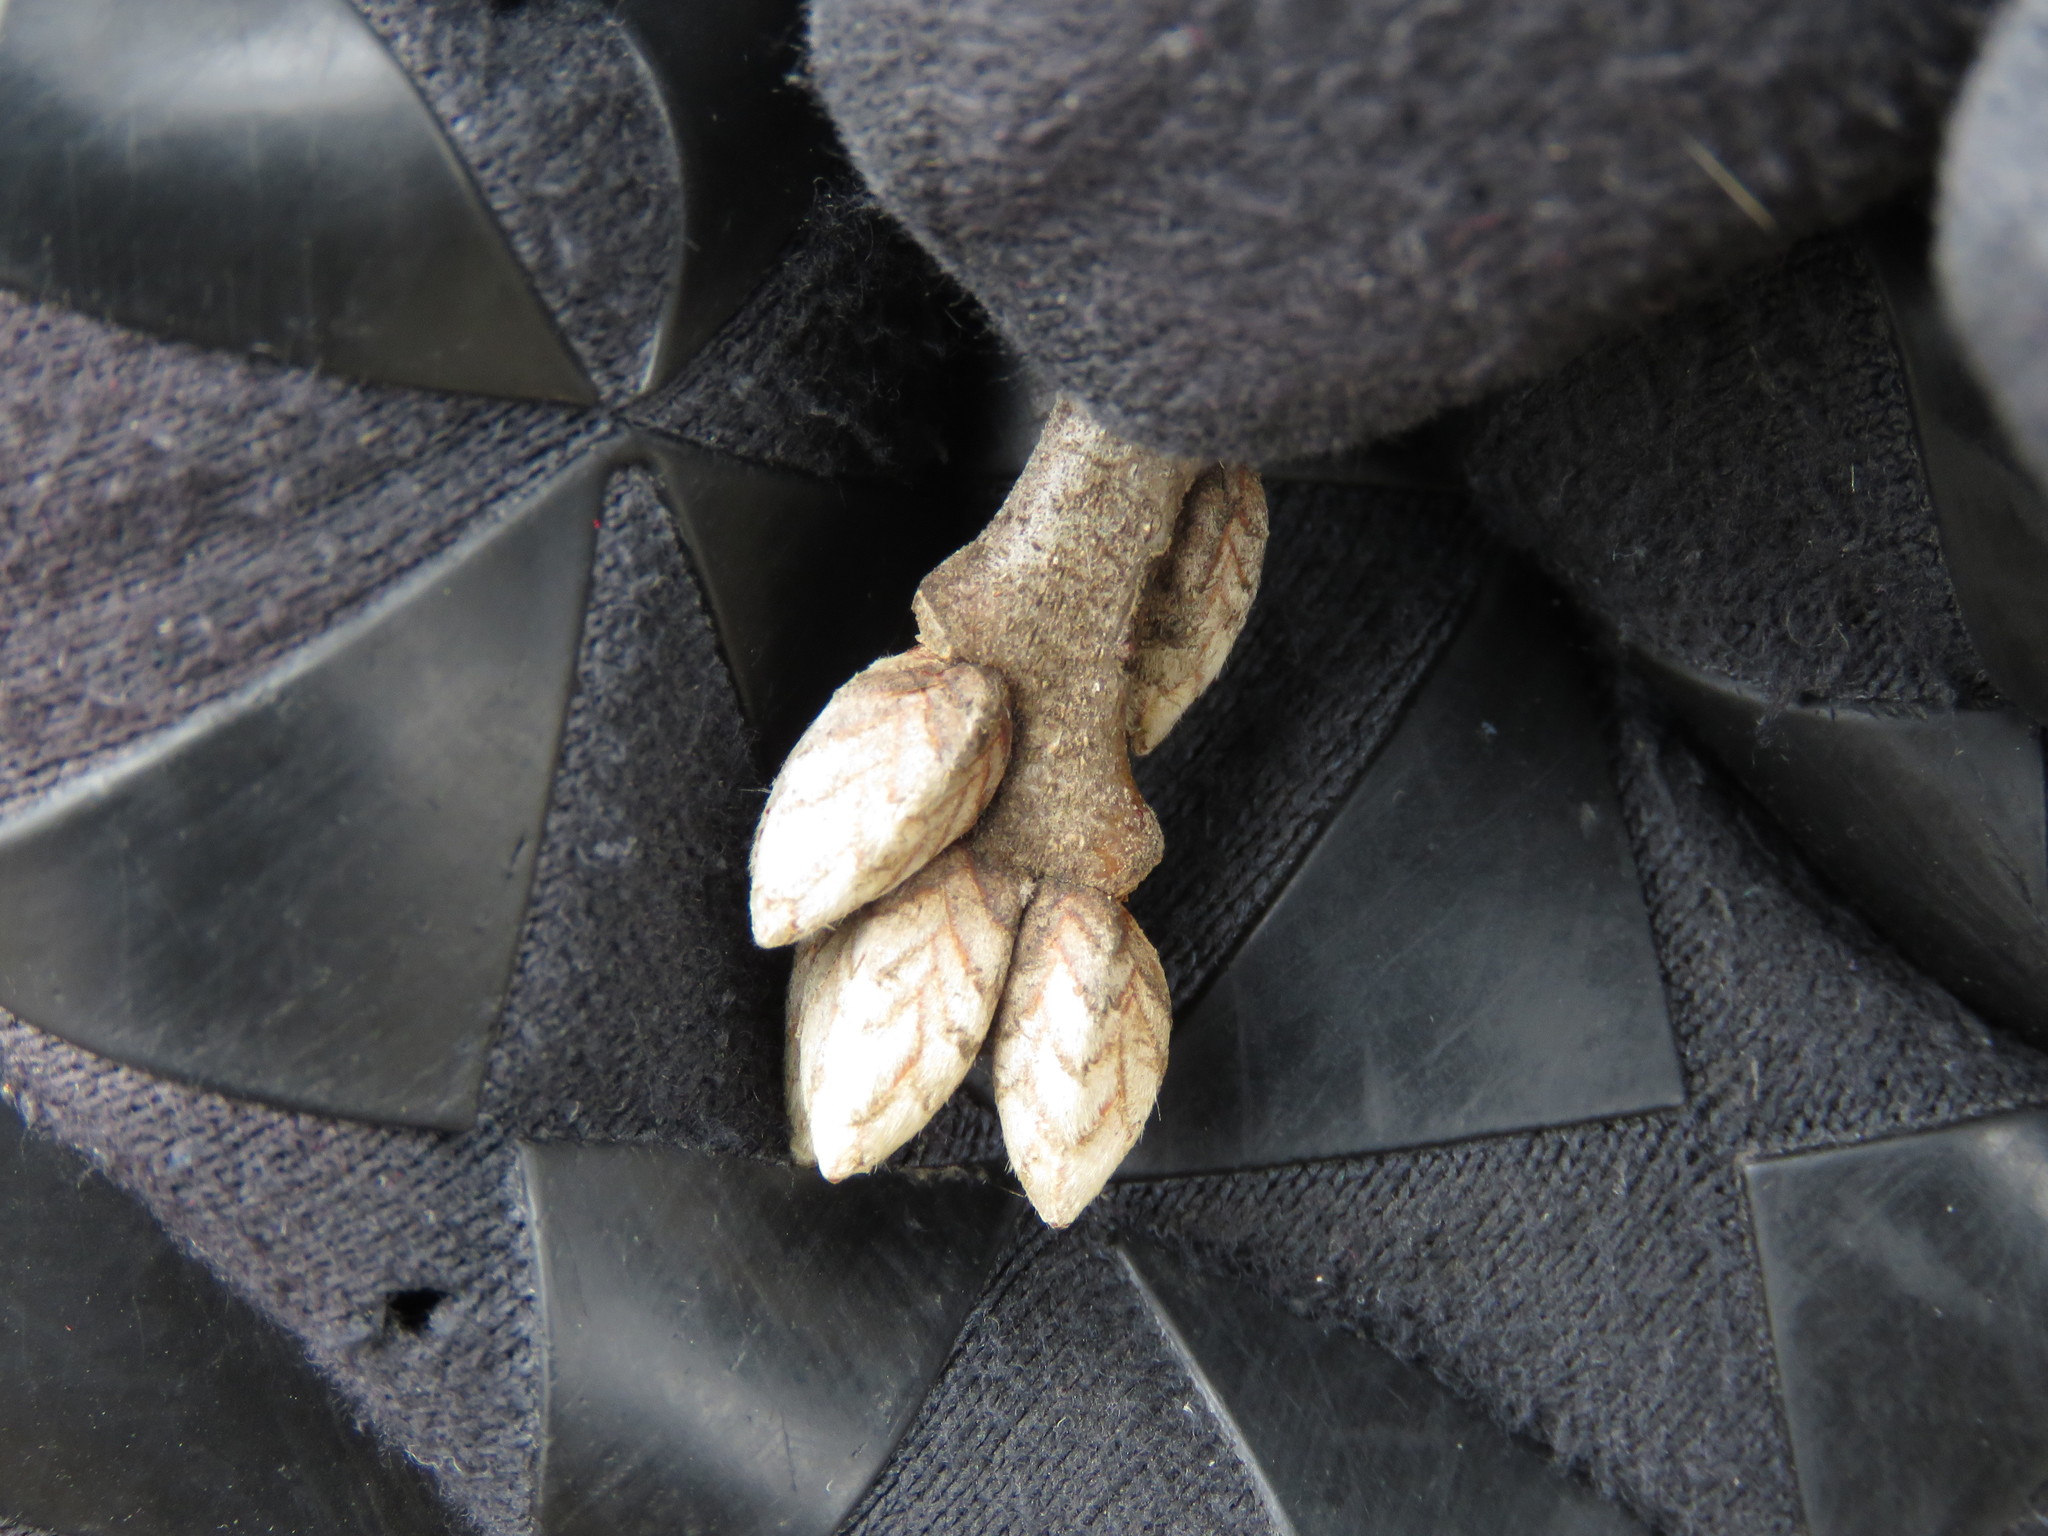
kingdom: Plantae
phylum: Tracheophyta
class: Magnoliopsida
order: Fagales
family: Fagaceae
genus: Quercus
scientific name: Quercus velutina
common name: Black oak
